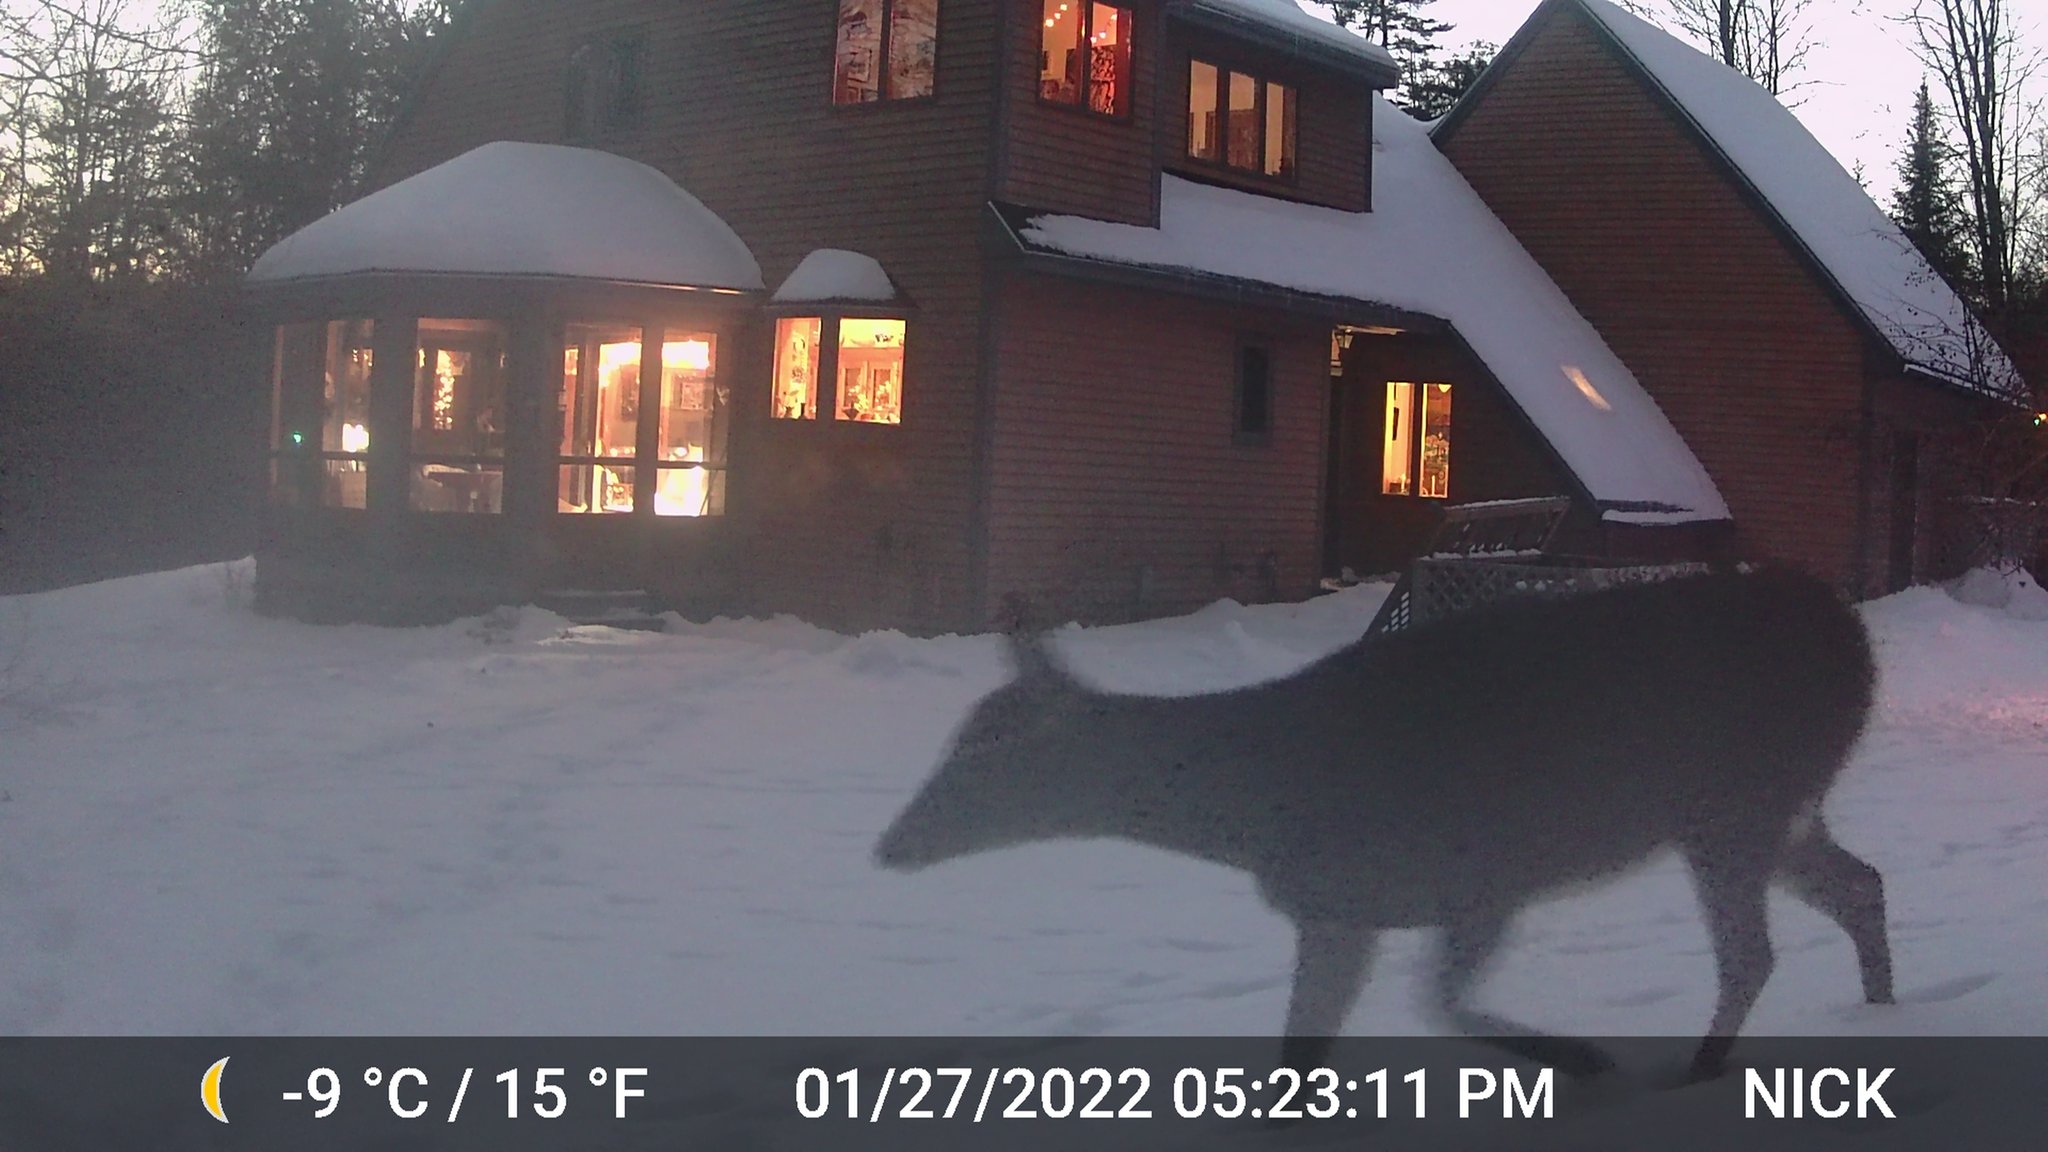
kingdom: Animalia
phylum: Chordata
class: Mammalia
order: Artiodactyla
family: Cervidae
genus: Odocoileus
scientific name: Odocoileus virginianus
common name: White-tailed deer
